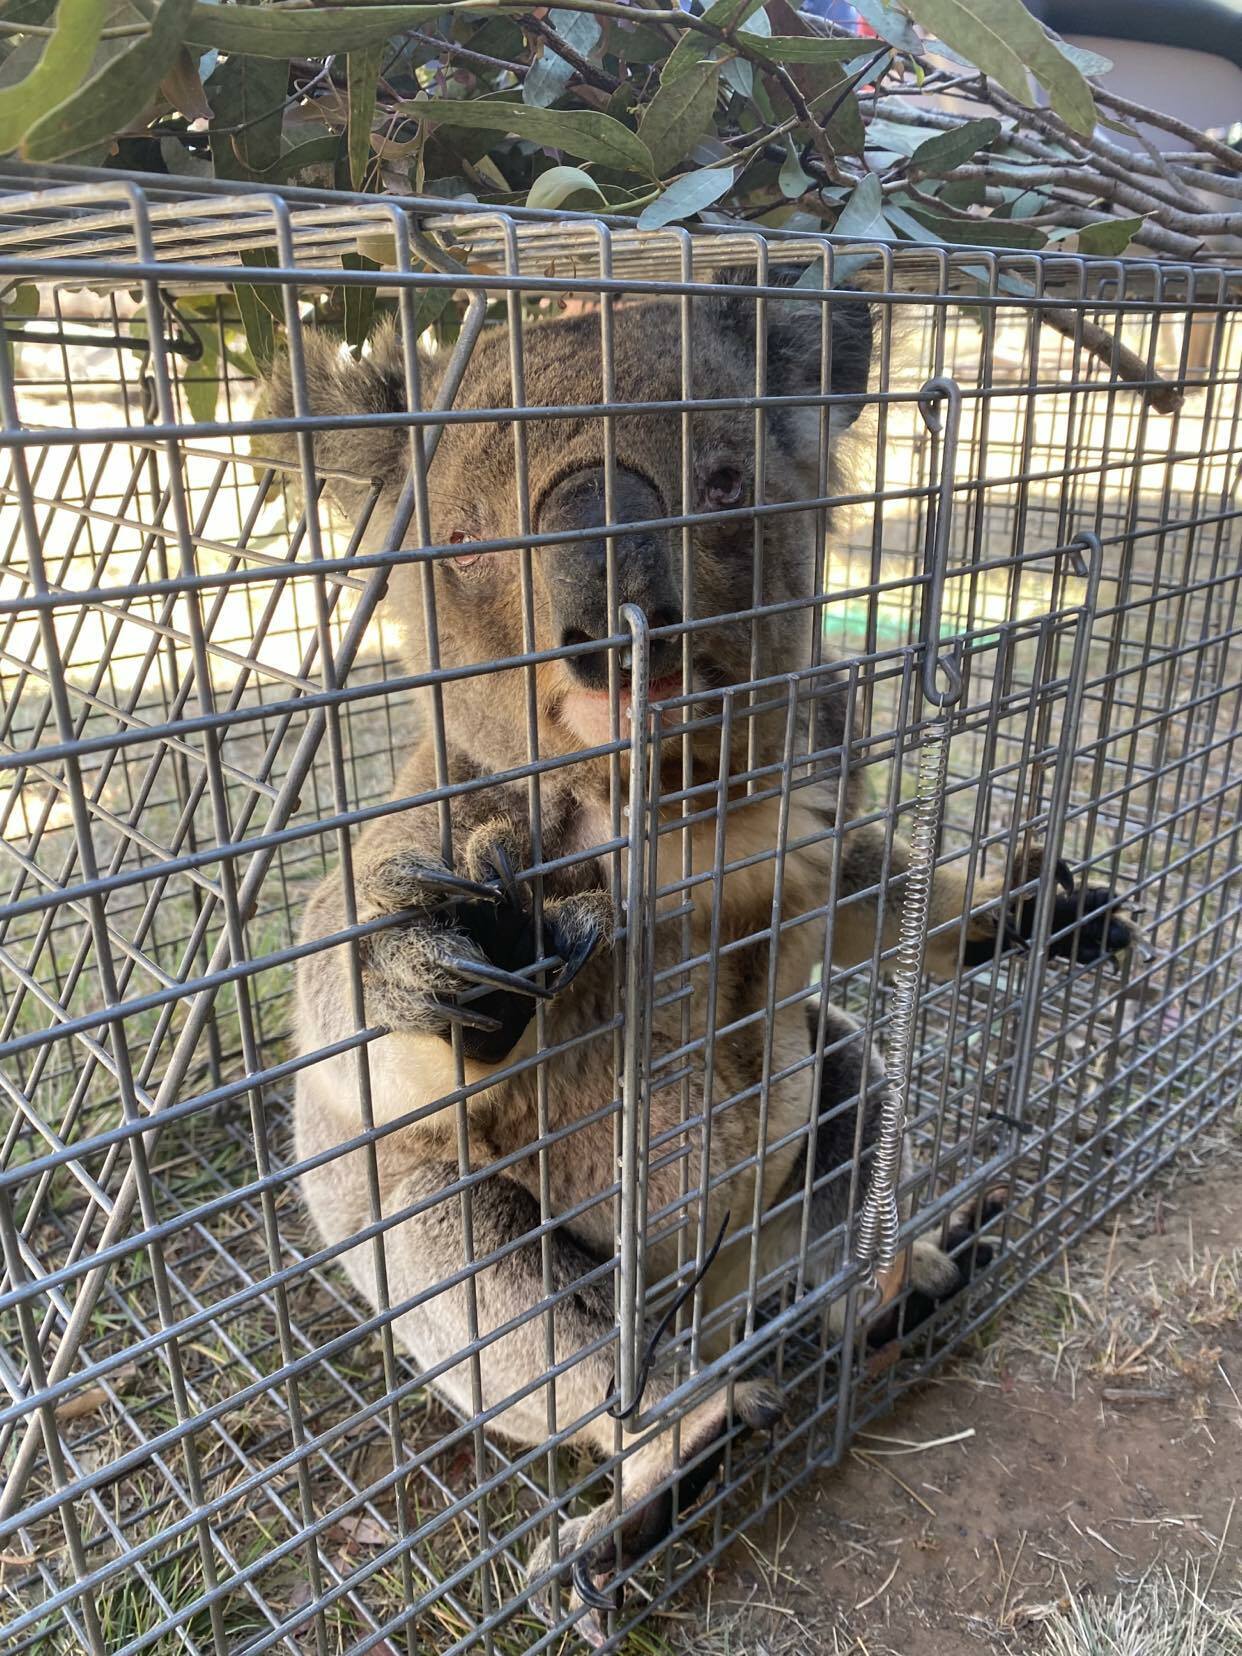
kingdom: Animalia
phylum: Chordata
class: Mammalia
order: Diprotodontia
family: Phascolarctidae
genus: Phascolarctos
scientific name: Phascolarctos cinereus
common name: Koala
